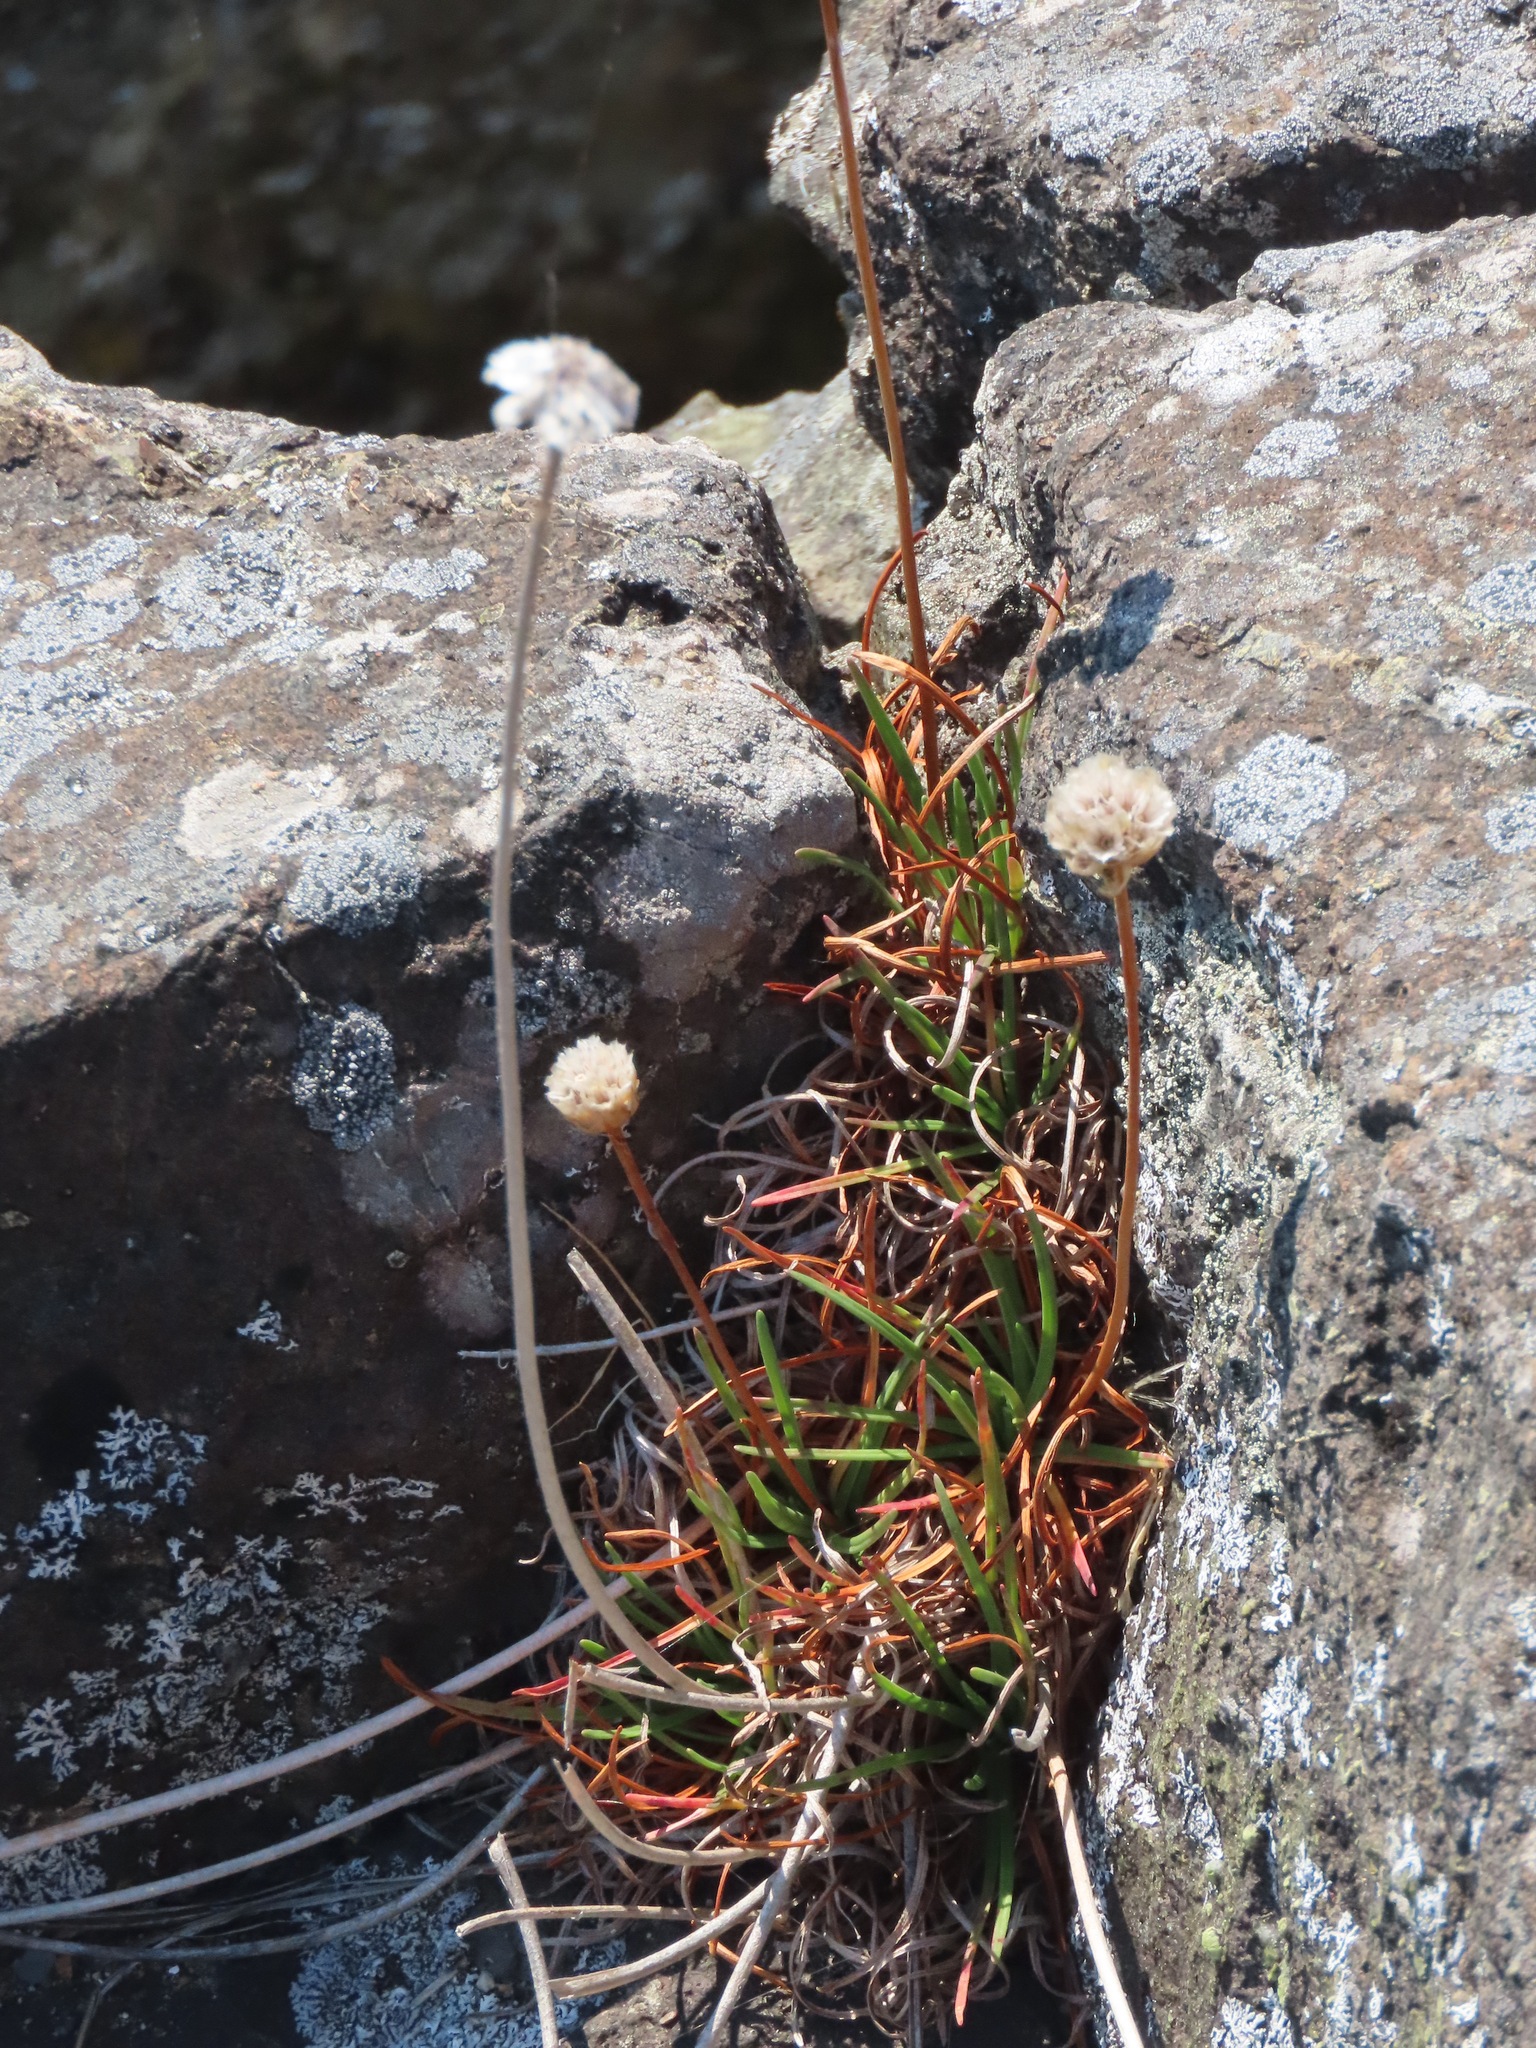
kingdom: Plantae
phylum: Tracheophyta
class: Magnoliopsida
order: Caryophyllales
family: Plumbaginaceae
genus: Armeria
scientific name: Armeria maritima
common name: Thrift
